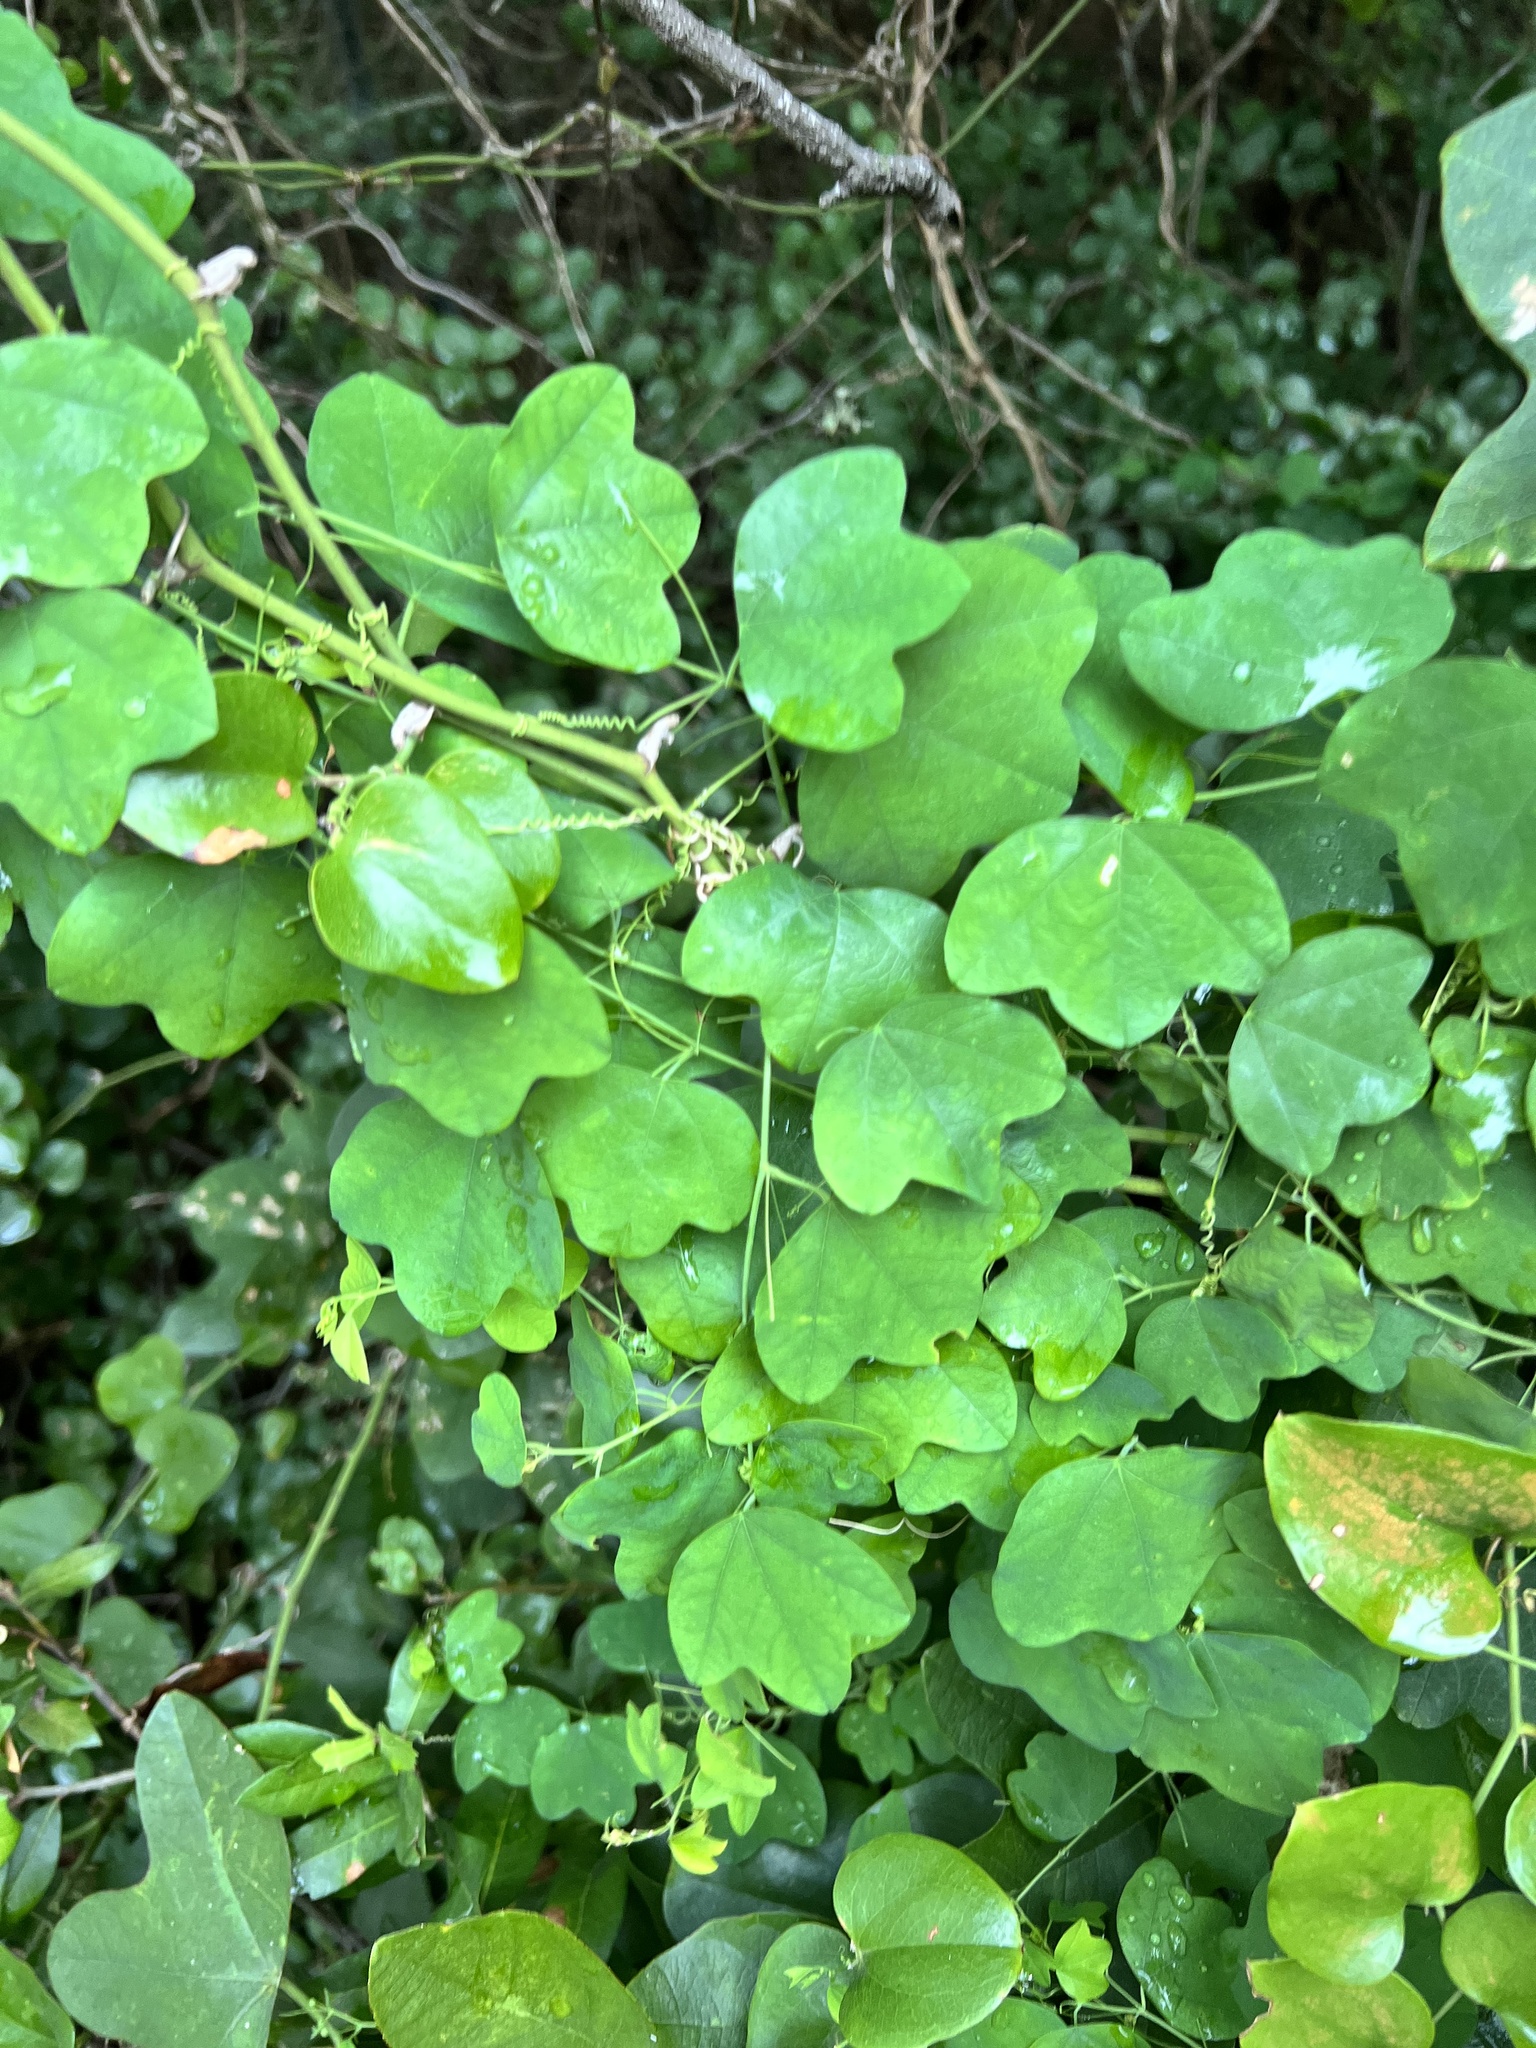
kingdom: Plantae
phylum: Tracheophyta
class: Magnoliopsida
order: Malpighiales
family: Passifloraceae
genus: Passiflora
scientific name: Passiflora lutea
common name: Yellow passionflower
